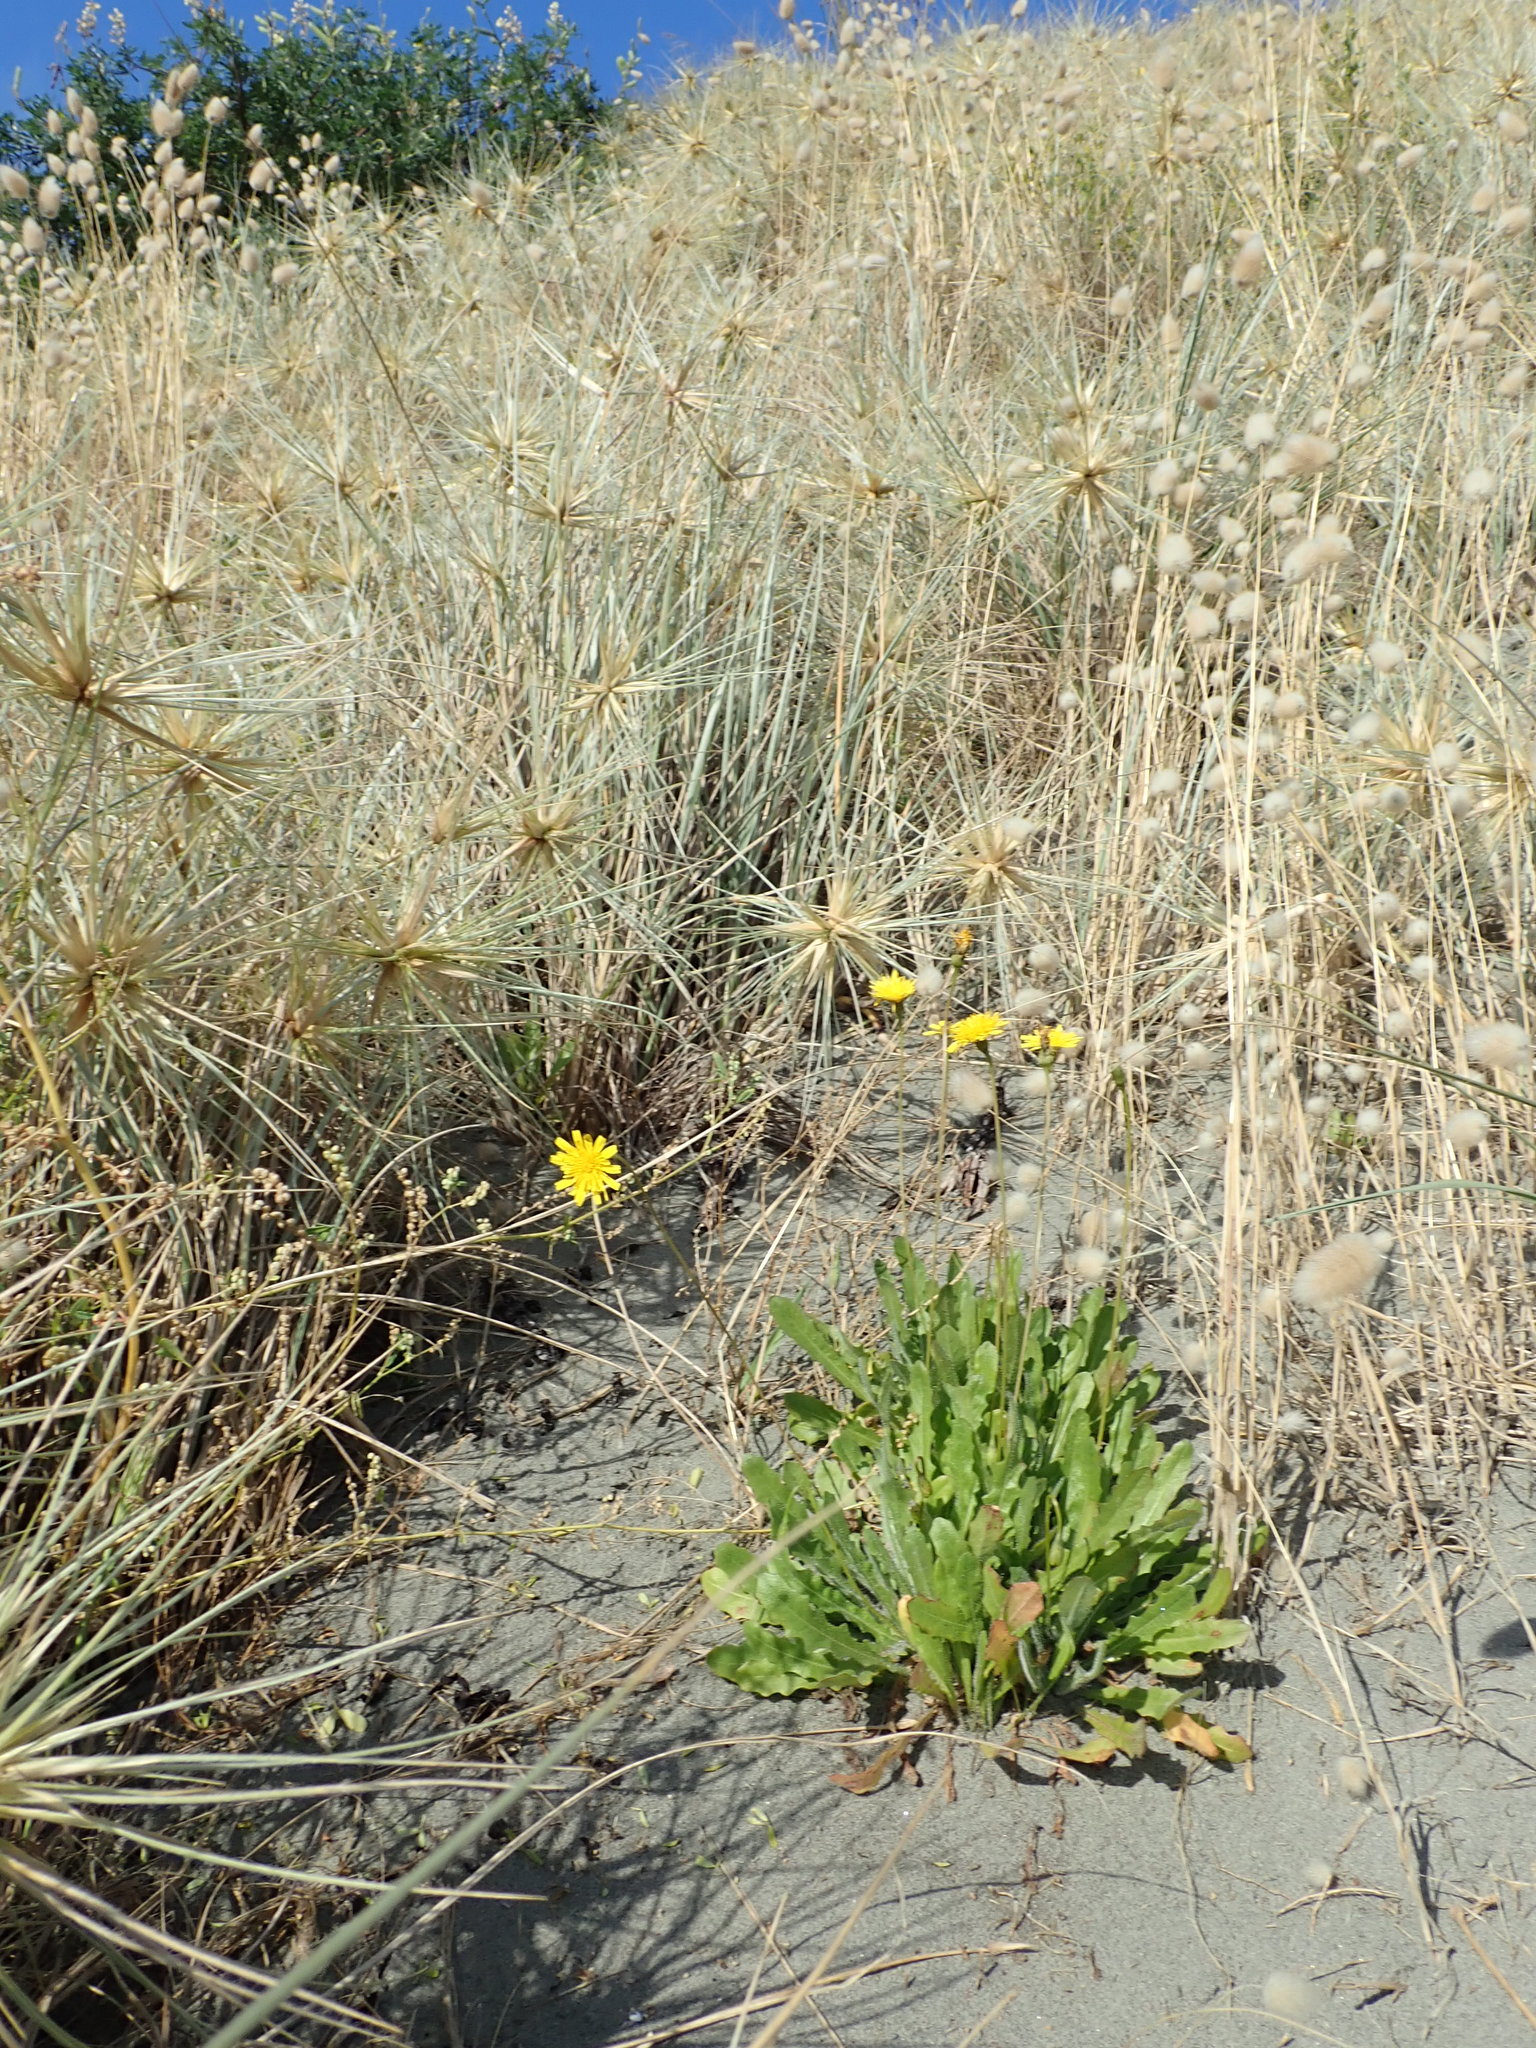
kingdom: Plantae
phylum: Tracheophyta
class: Magnoliopsida
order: Asterales
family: Asteraceae
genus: Thrincia
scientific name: Thrincia saxatilis
